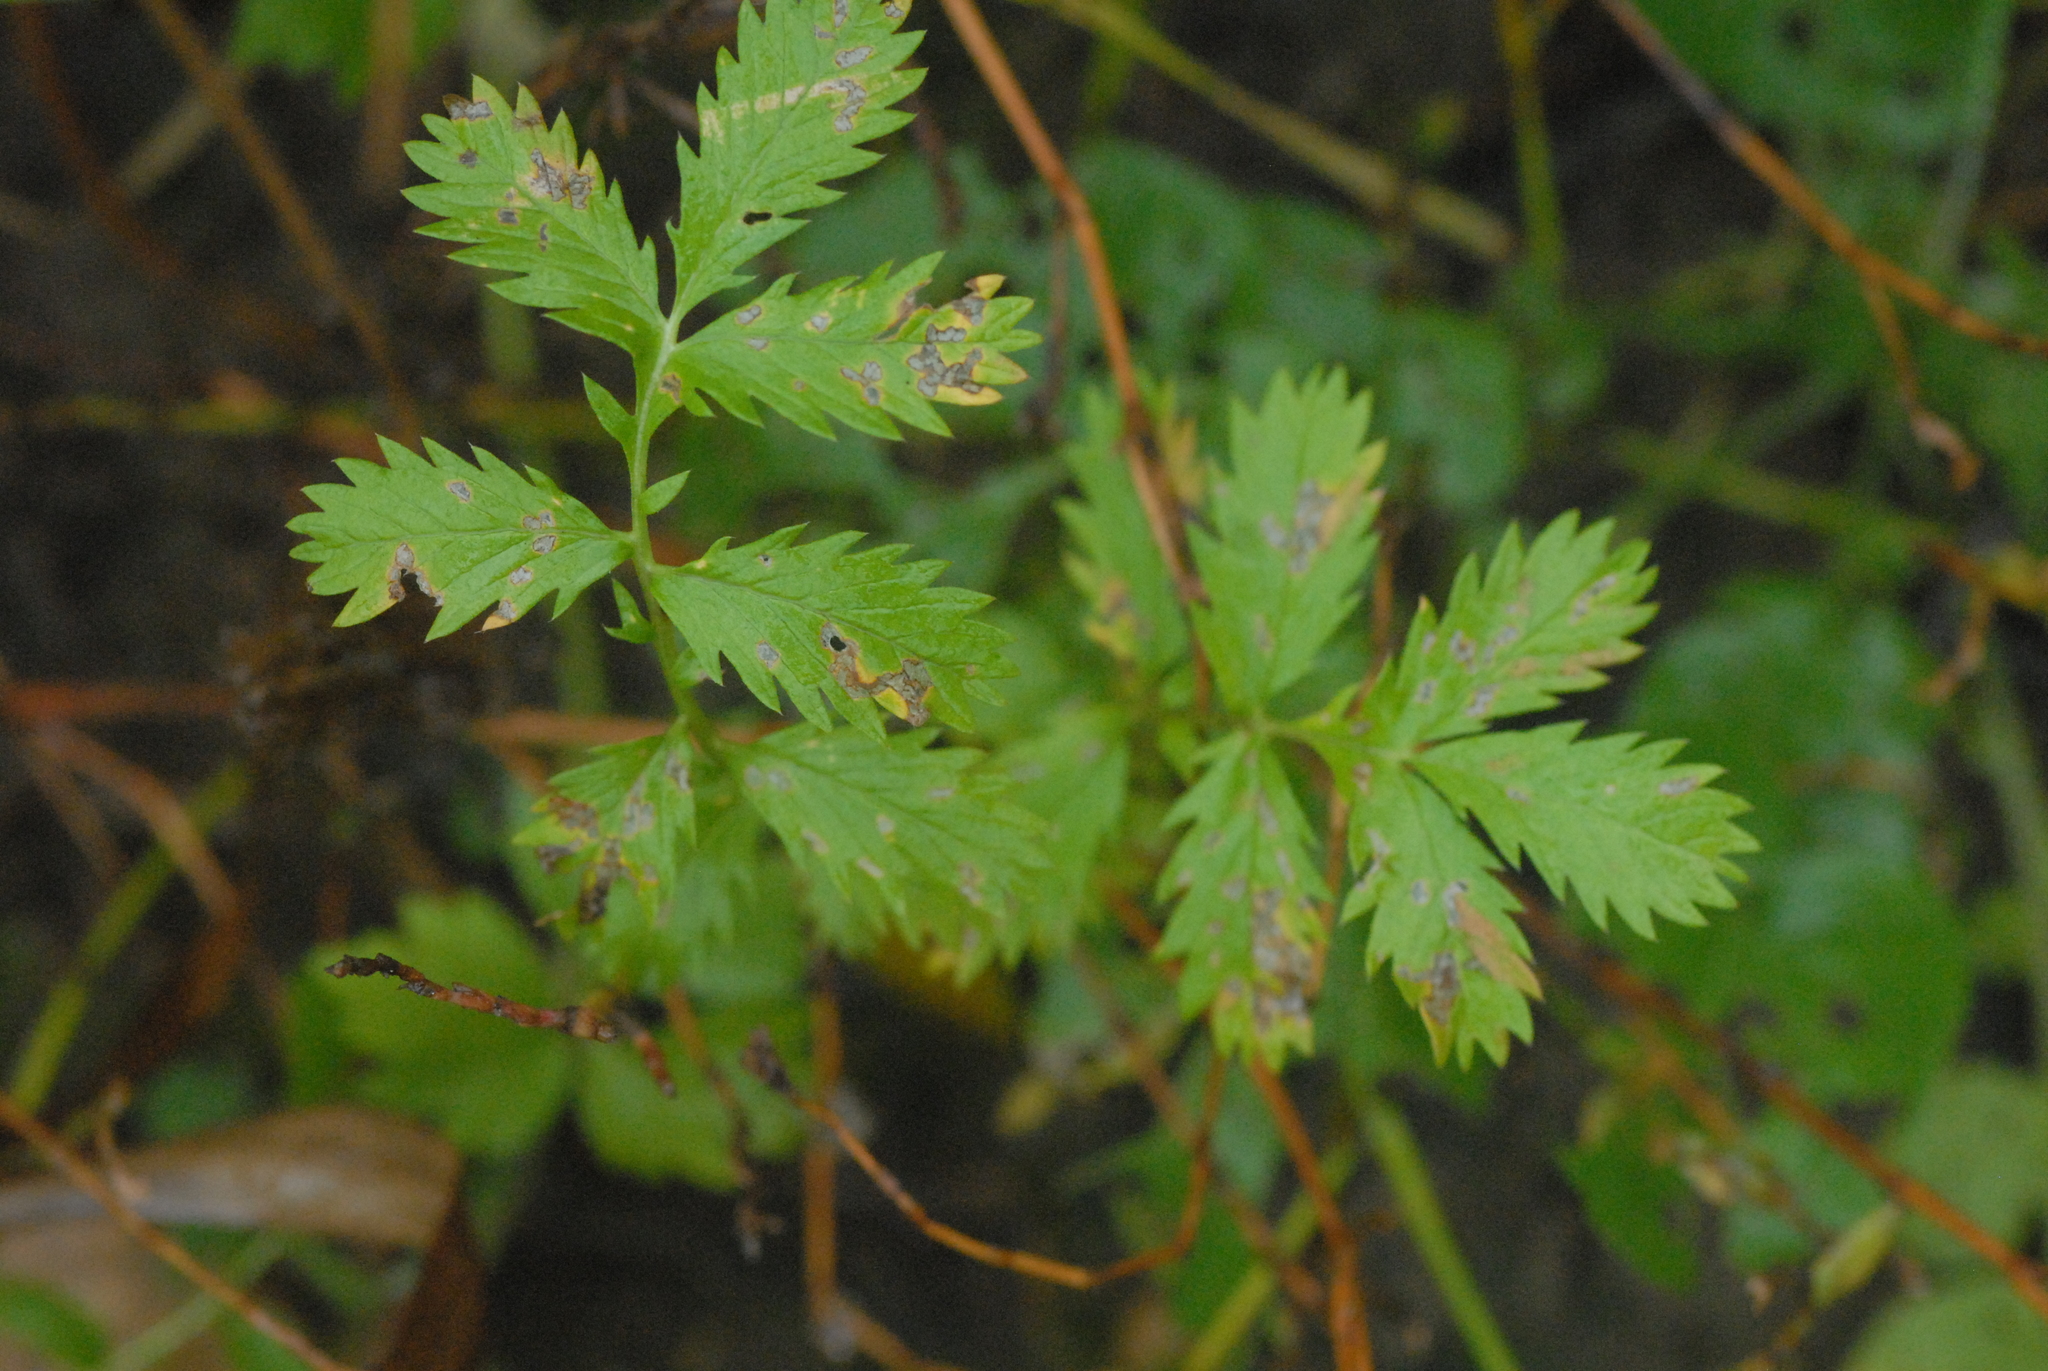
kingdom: Plantae
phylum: Tracheophyta
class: Magnoliopsida
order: Rosales
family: Rosaceae
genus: Argentina
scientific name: Argentina anserina
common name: Common silverweed
